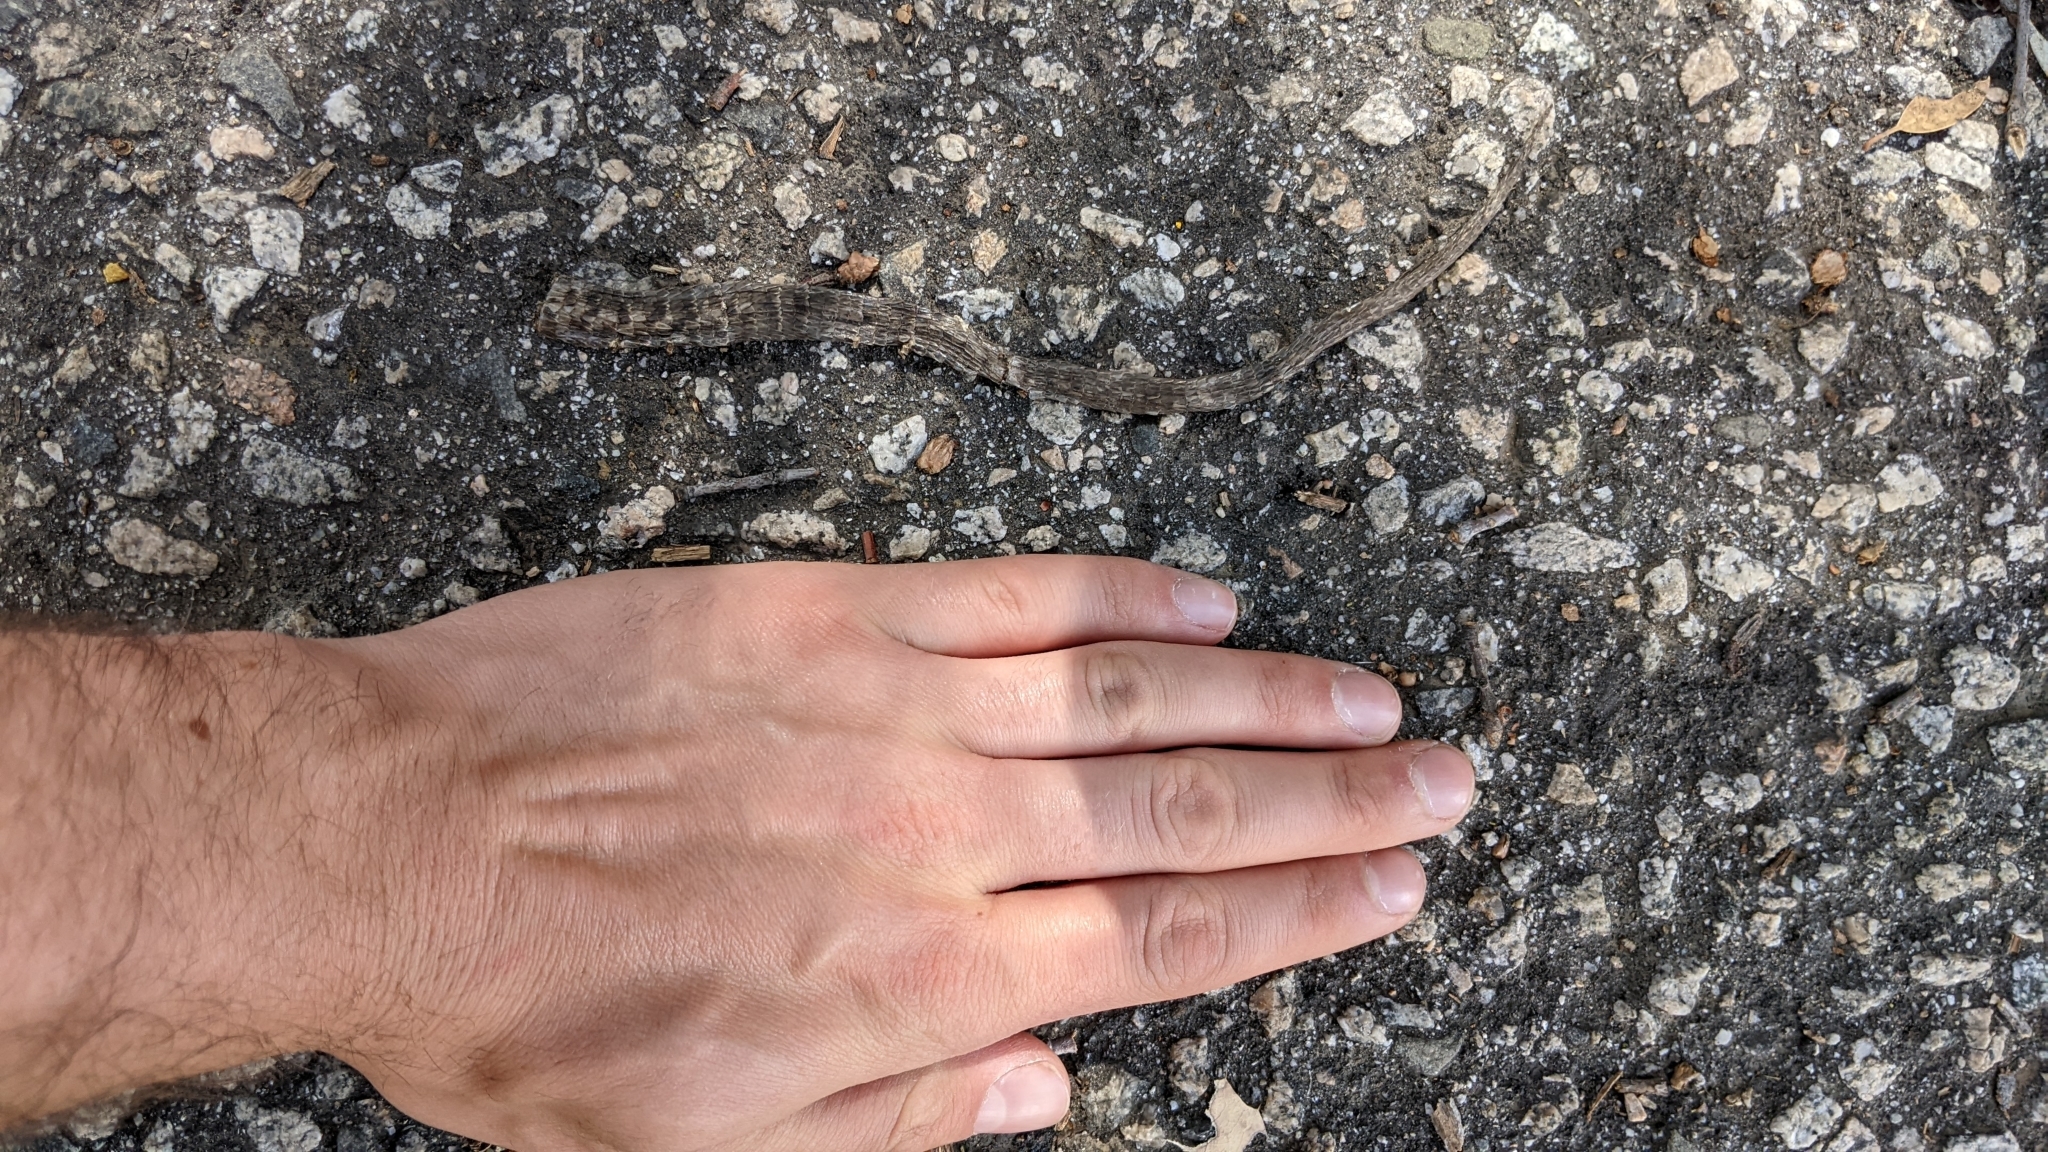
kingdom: Animalia
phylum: Chordata
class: Squamata
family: Anguidae
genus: Elgaria
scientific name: Elgaria multicarinata
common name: Southern alligator lizard
